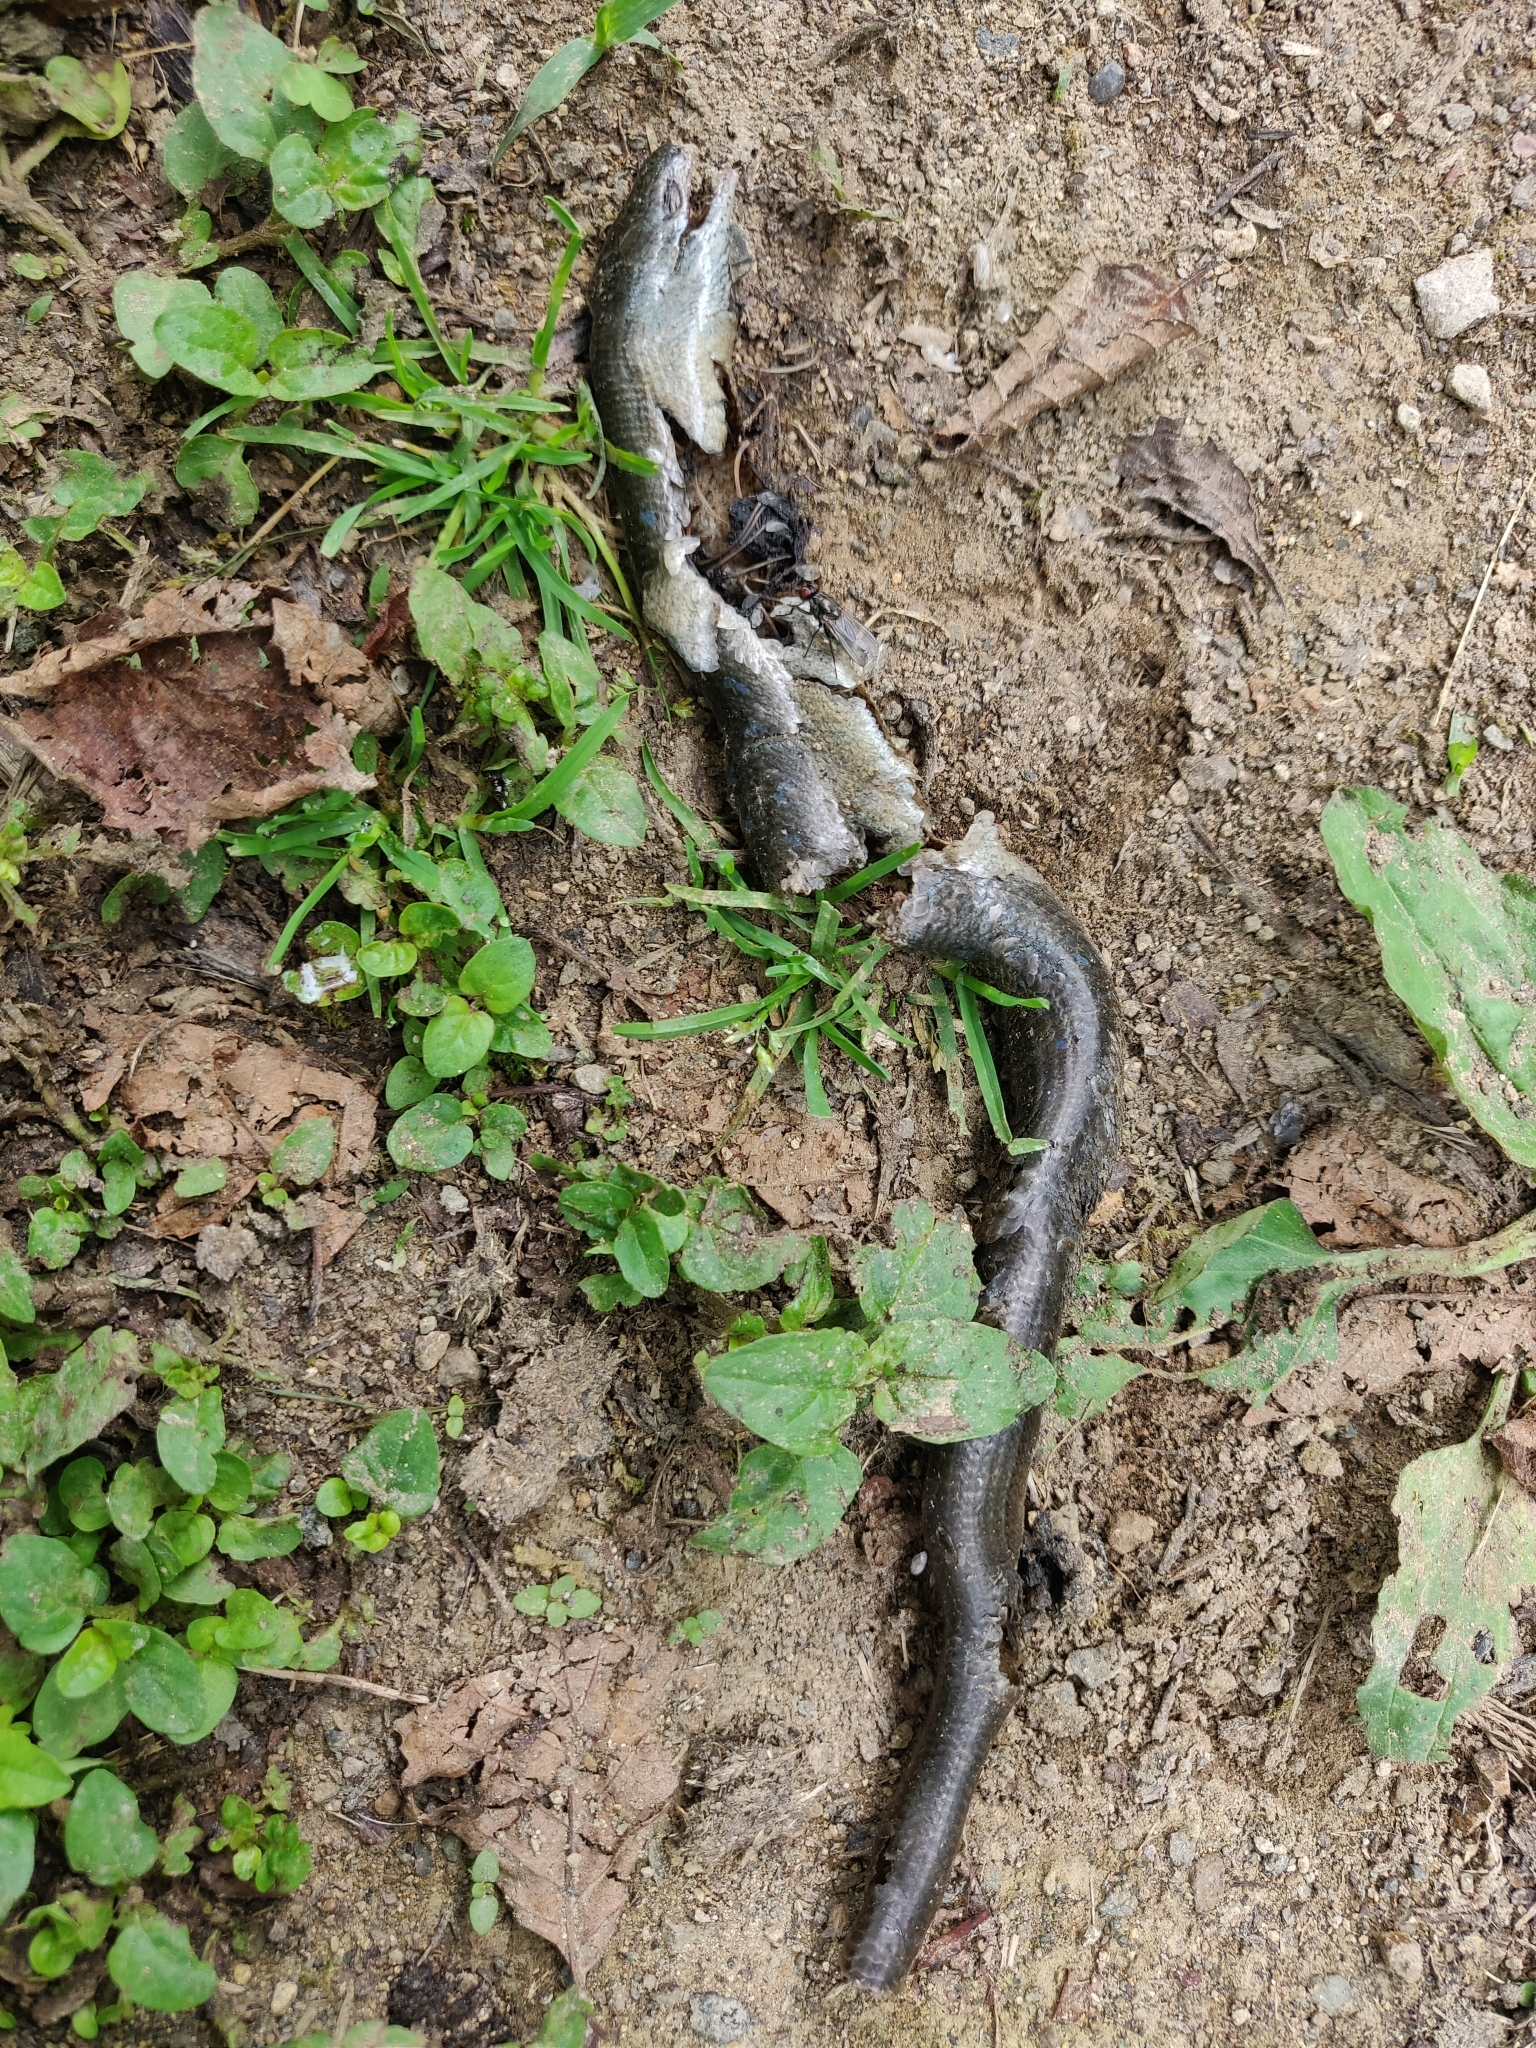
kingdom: Animalia
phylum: Chordata
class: Squamata
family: Anguidae
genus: Anguis
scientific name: Anguis colchica
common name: Slow worm
